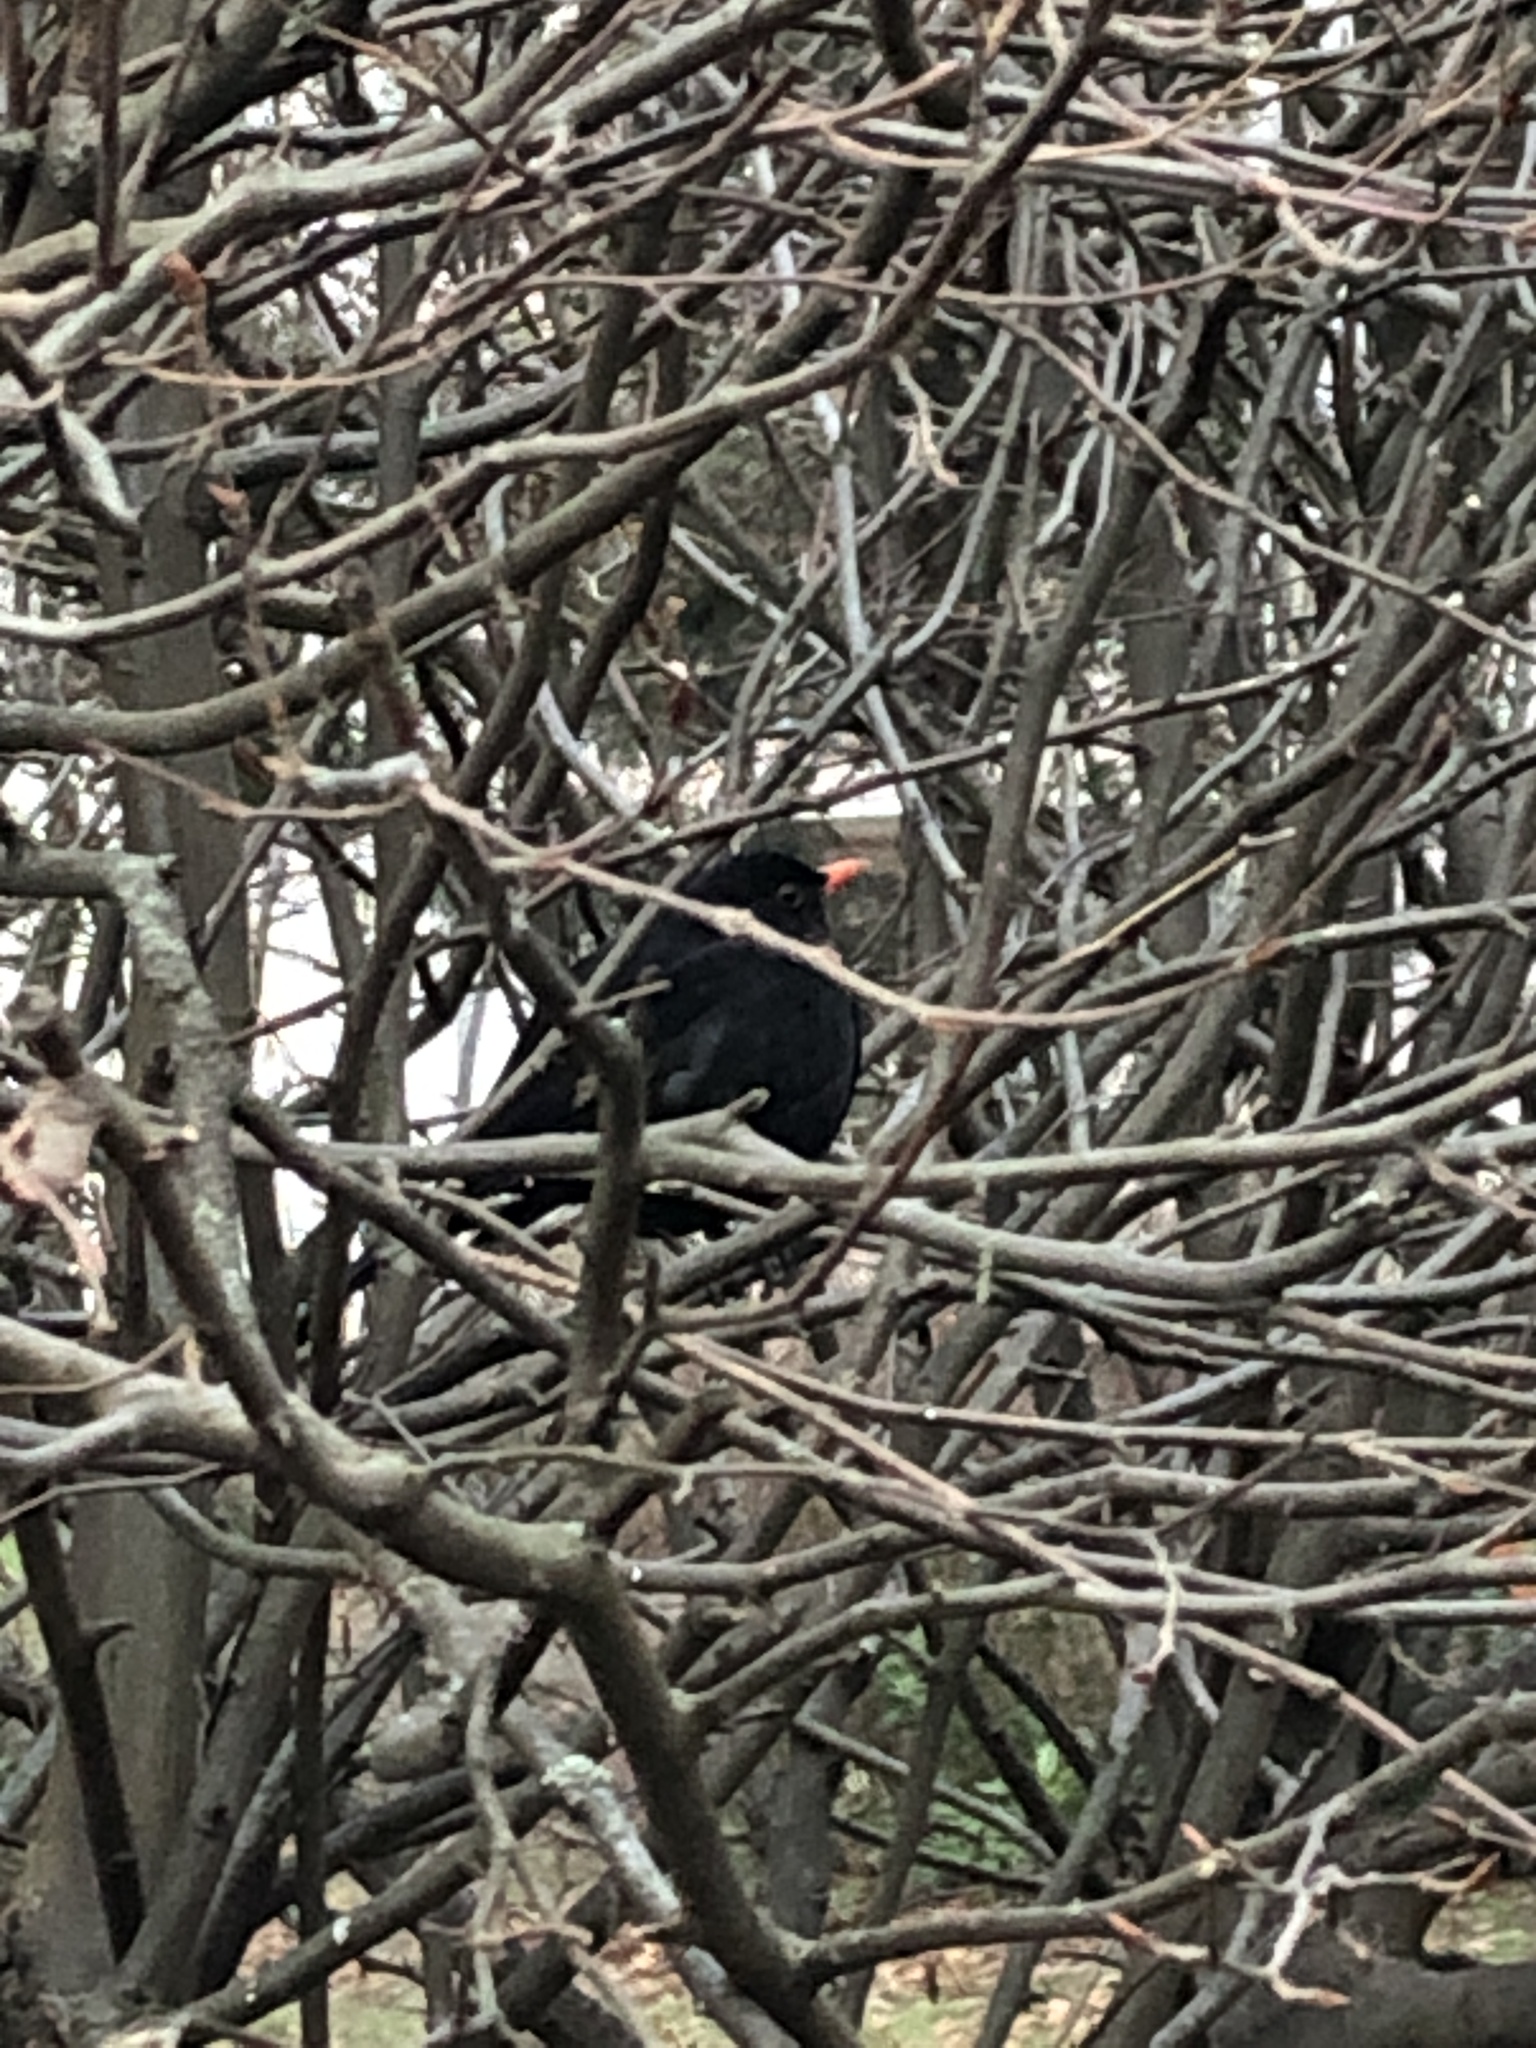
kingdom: Animalia
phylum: Chordata
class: Aves
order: Passeriformes
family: Turdidae
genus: Turdus
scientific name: Turdus merula
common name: Common blackbird
